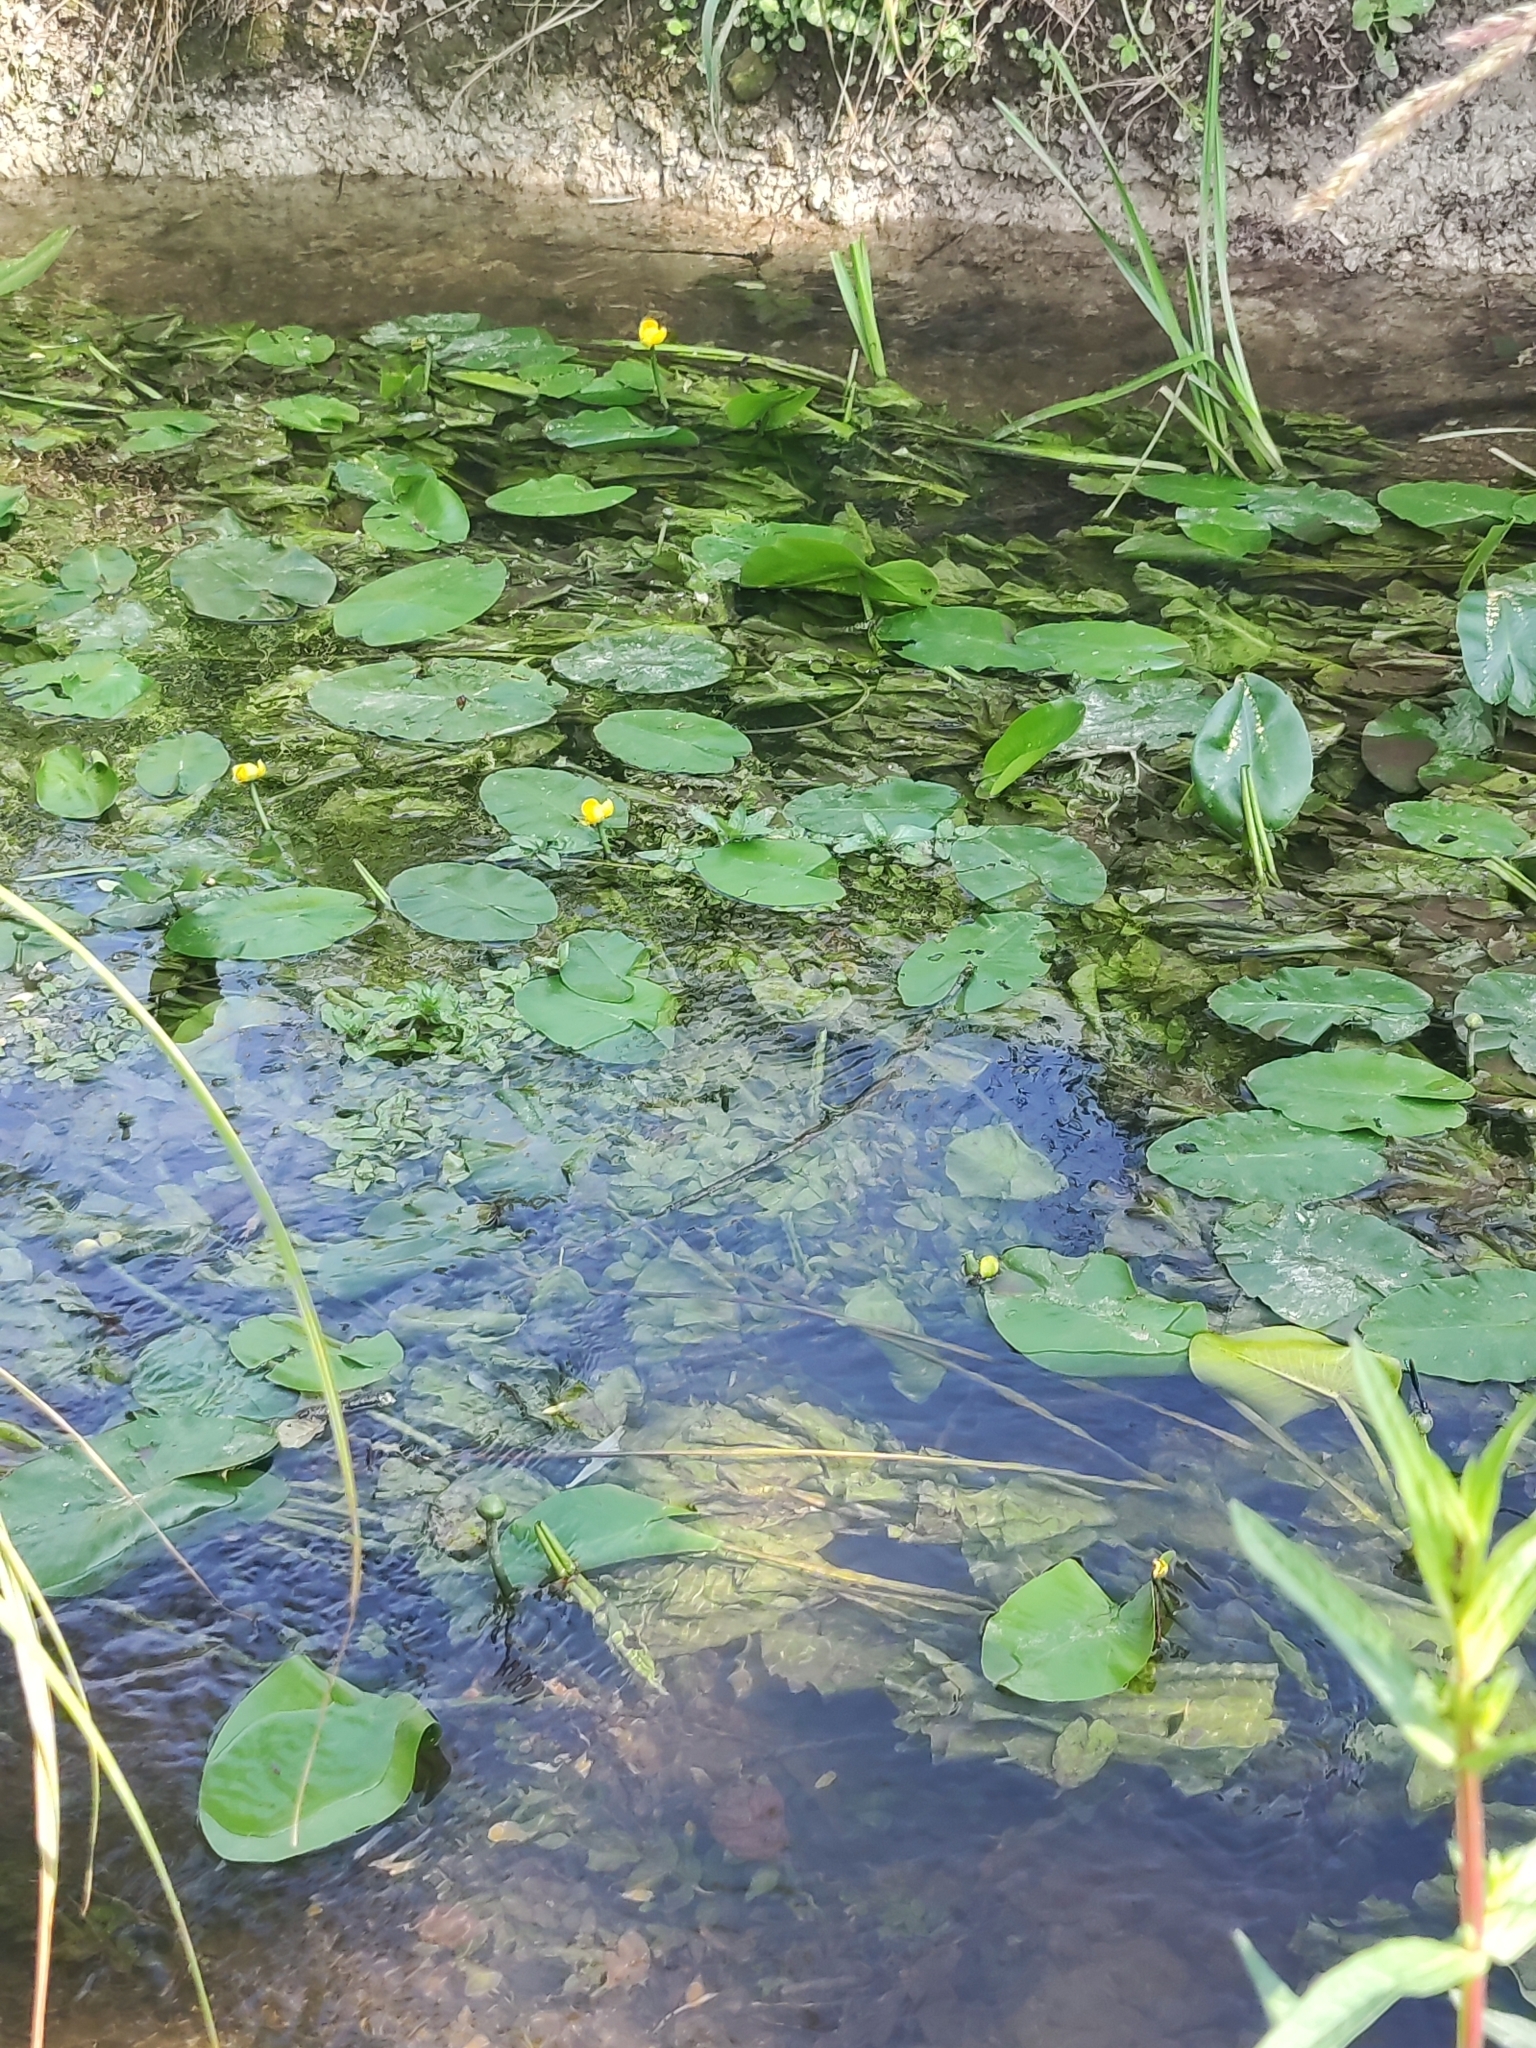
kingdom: Plantae
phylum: Tracheophyta
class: Magnoliopsida
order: Nymphaeales
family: Nymphaeaceae
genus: Nuphar
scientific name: Nuphar lutea
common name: Yellow water-lily
